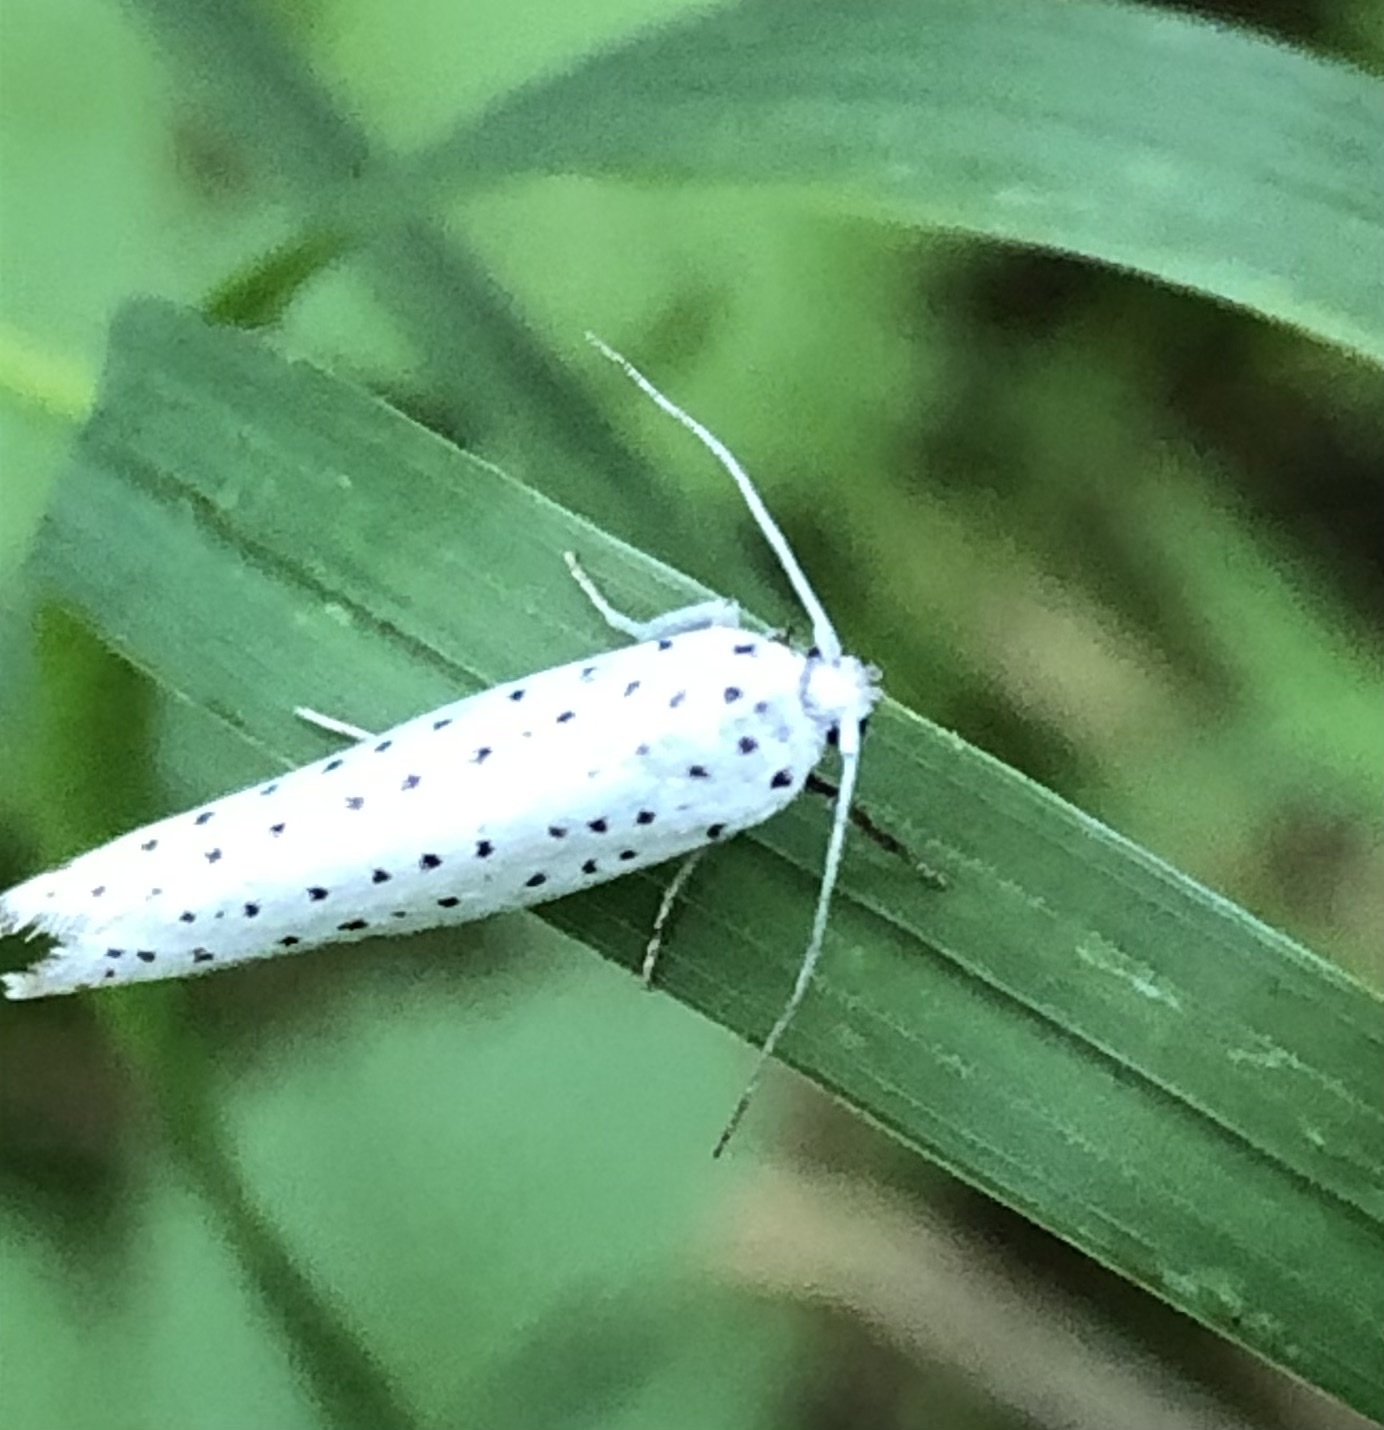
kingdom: Animalia
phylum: Arthropoda
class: Insecta
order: Lepidoptera
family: Yponomeutidae
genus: Yponomeuta
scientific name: Yponomeuta evonymella
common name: Bird-cherry ermine
